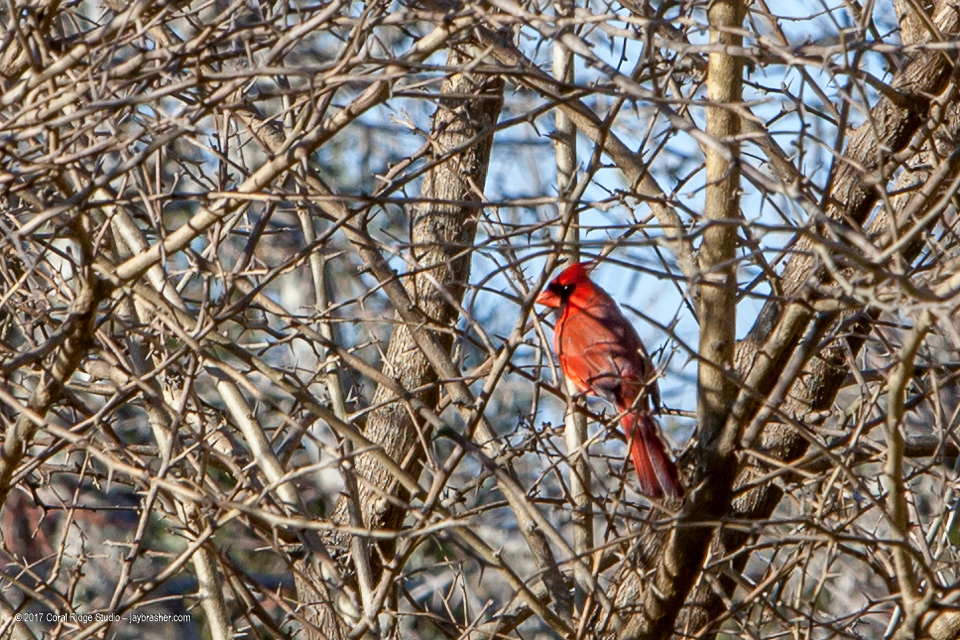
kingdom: Animalia
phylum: Chordata
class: Aves
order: Passeriformes
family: Cardinalidae
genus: Cardinalis
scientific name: Cardinalis cardinalis
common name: Northern cardinal
